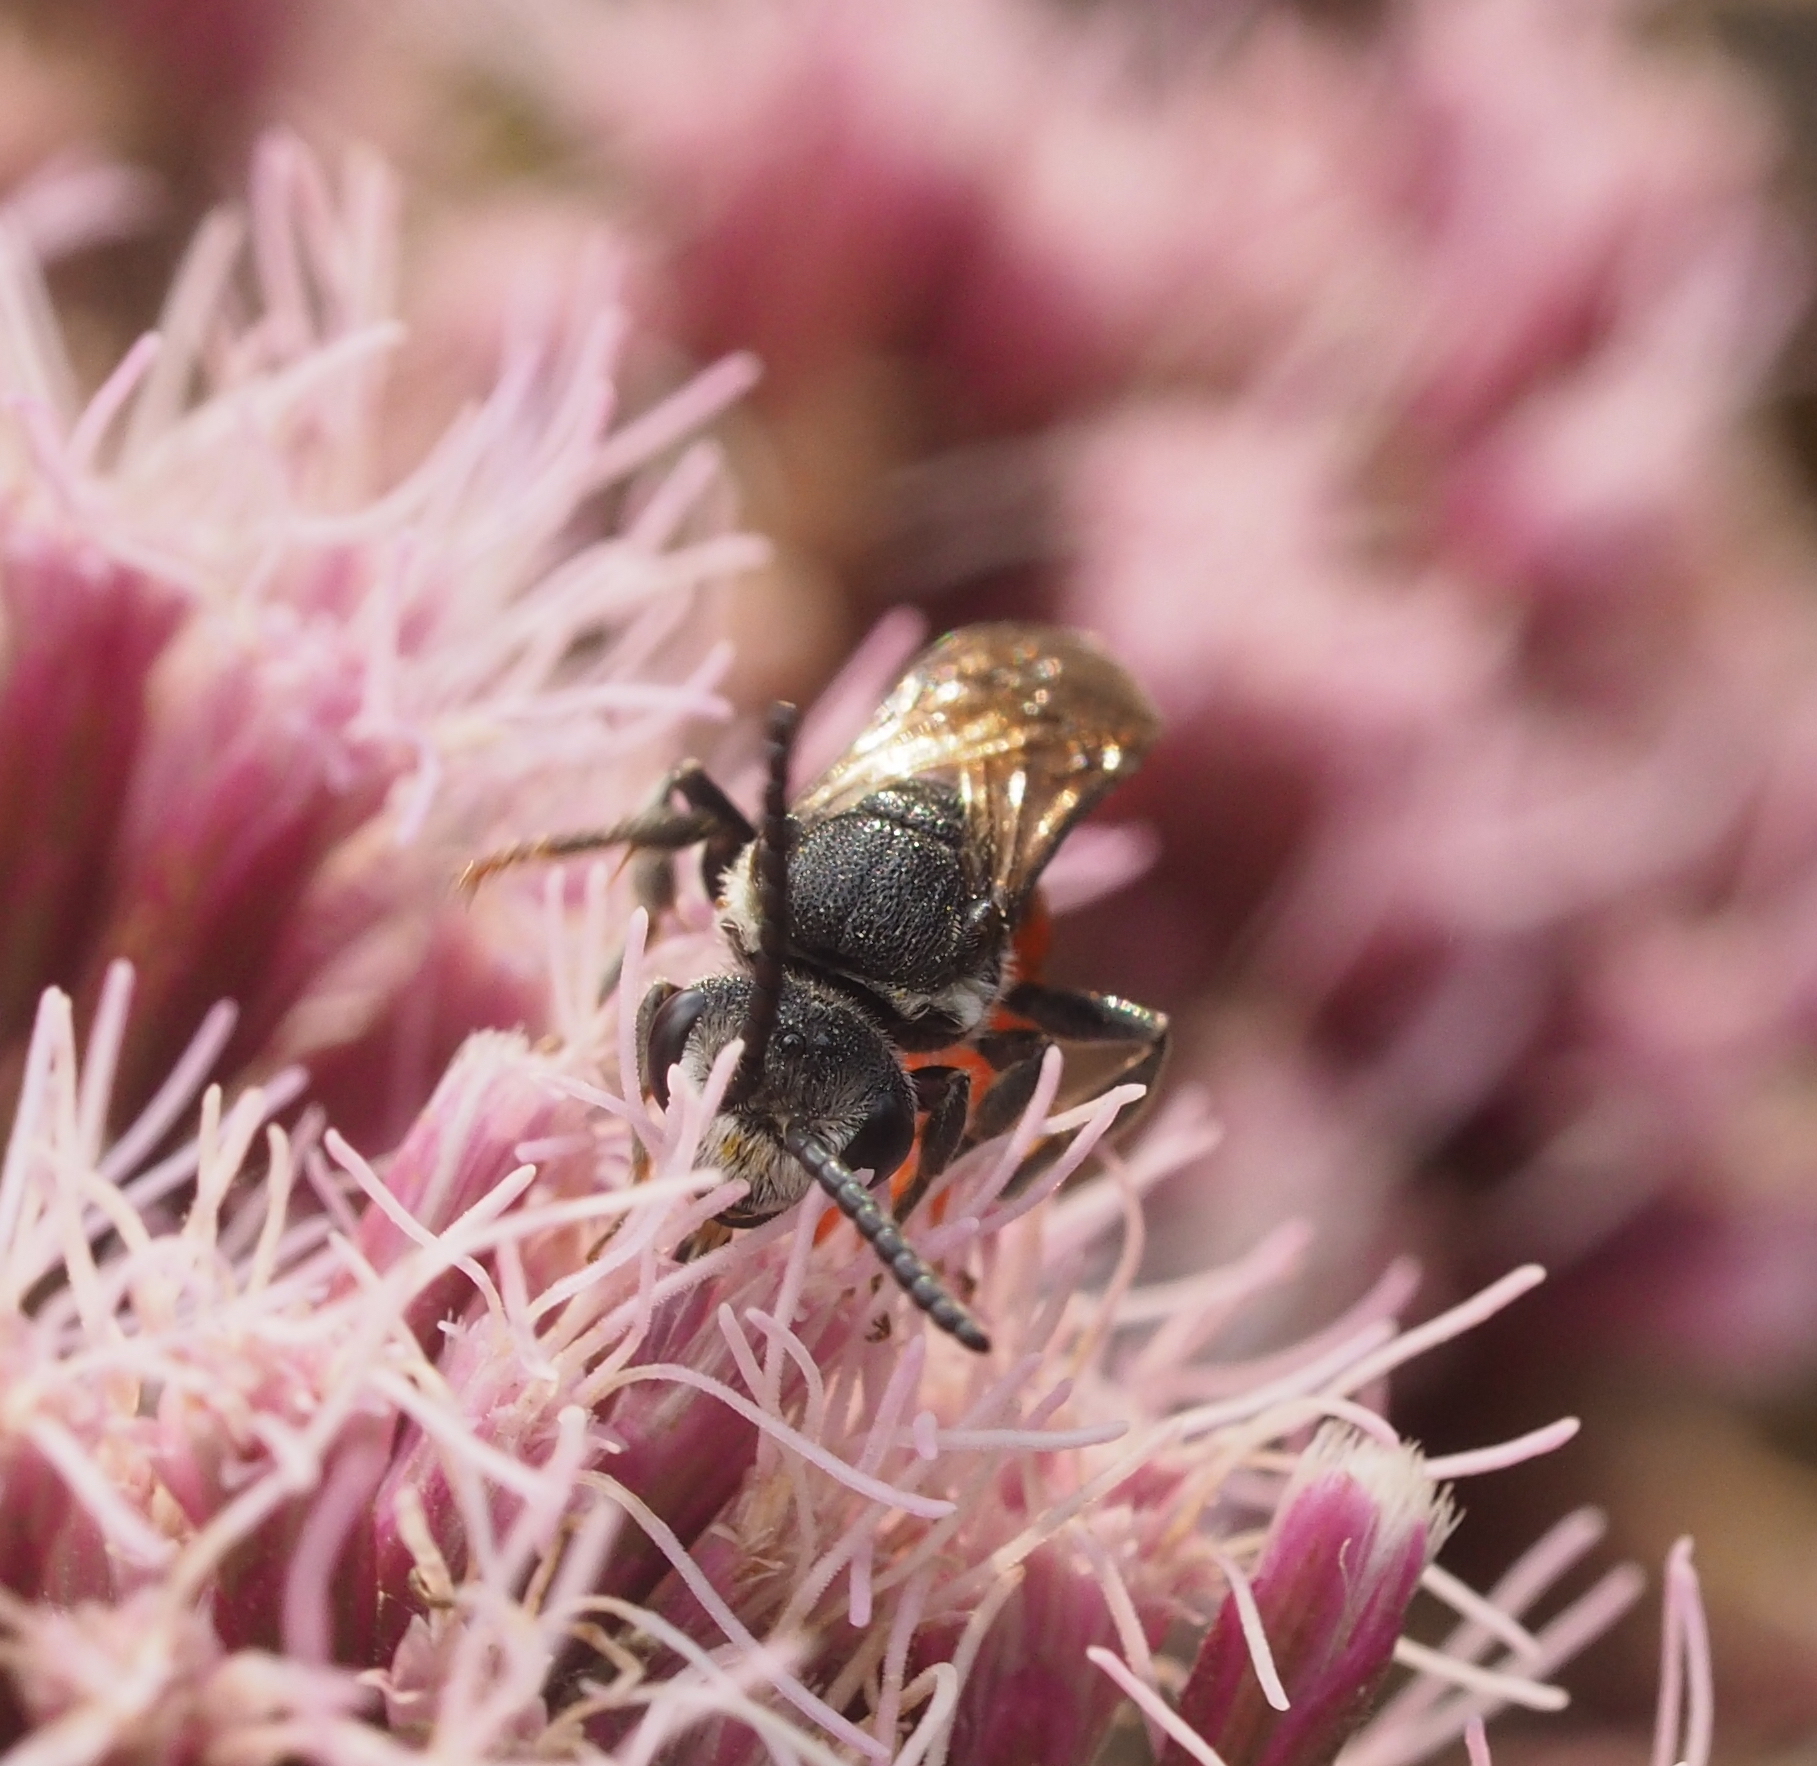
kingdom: Animalia
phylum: Arthropoda
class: Insecta
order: Hymenoptera
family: Halictidae
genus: Sphecodes
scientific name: Sphecodes albilabris
